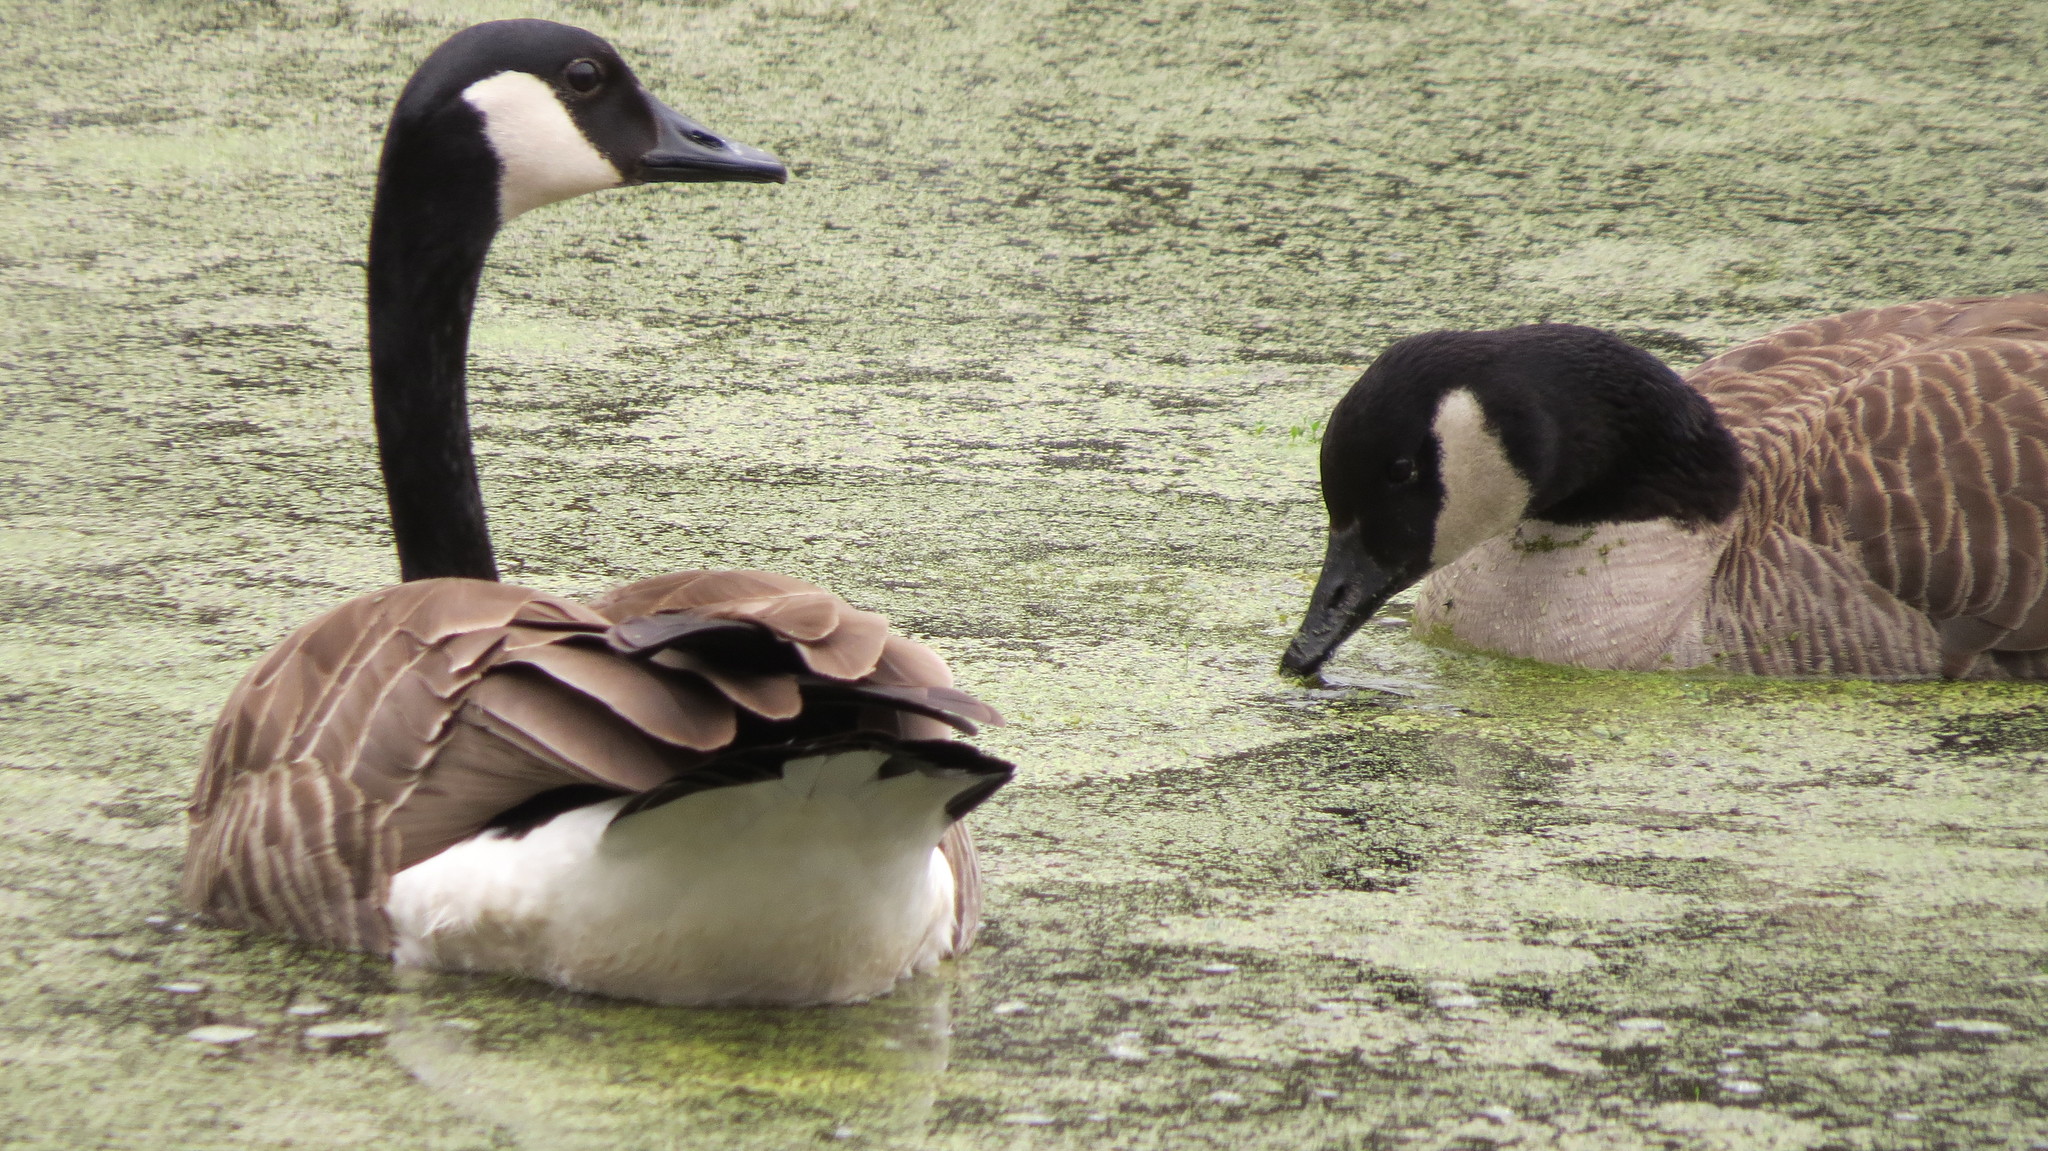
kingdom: Animalia
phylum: Chordata
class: Aves
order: Anseriformes
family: Anatidae
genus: Branta
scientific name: Branta canadensis
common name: Canada goose
